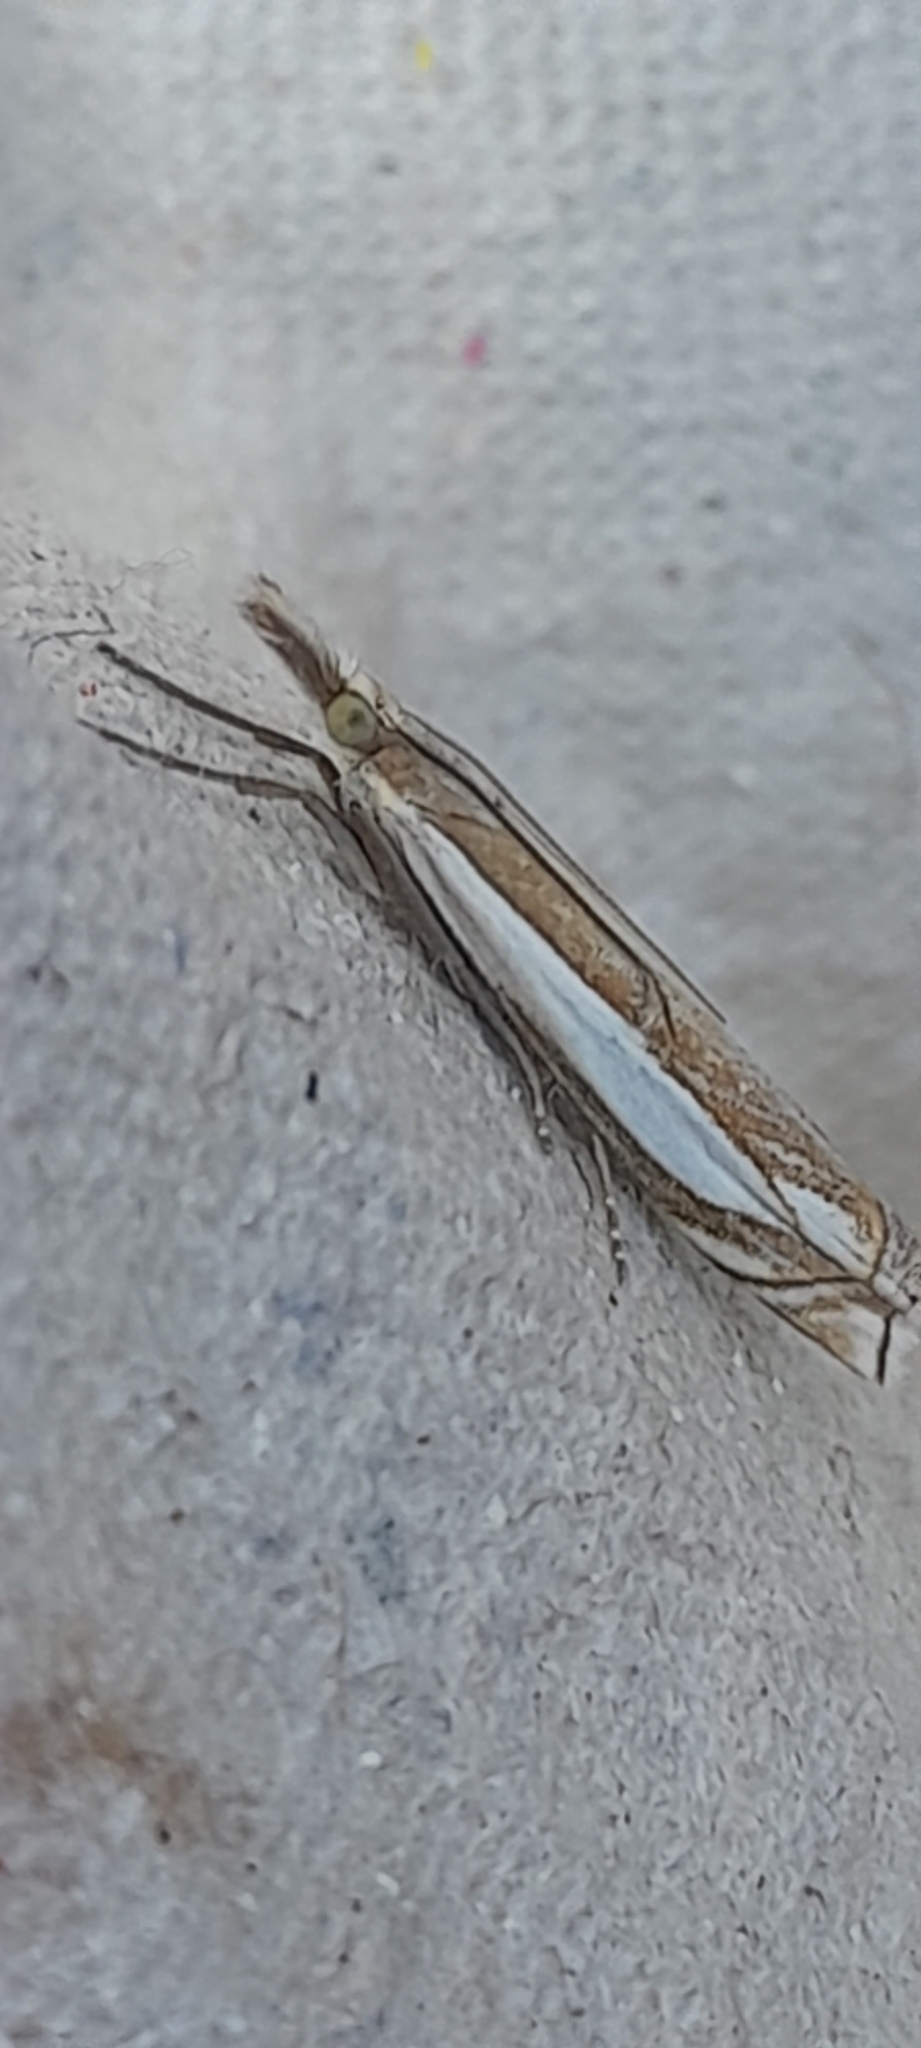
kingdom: Animalia
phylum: Arthropoda
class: Insecta
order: Lepidoptera
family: Crambidae
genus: Crambus
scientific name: Crambus pascuella
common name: Inlaid grass-veneer
